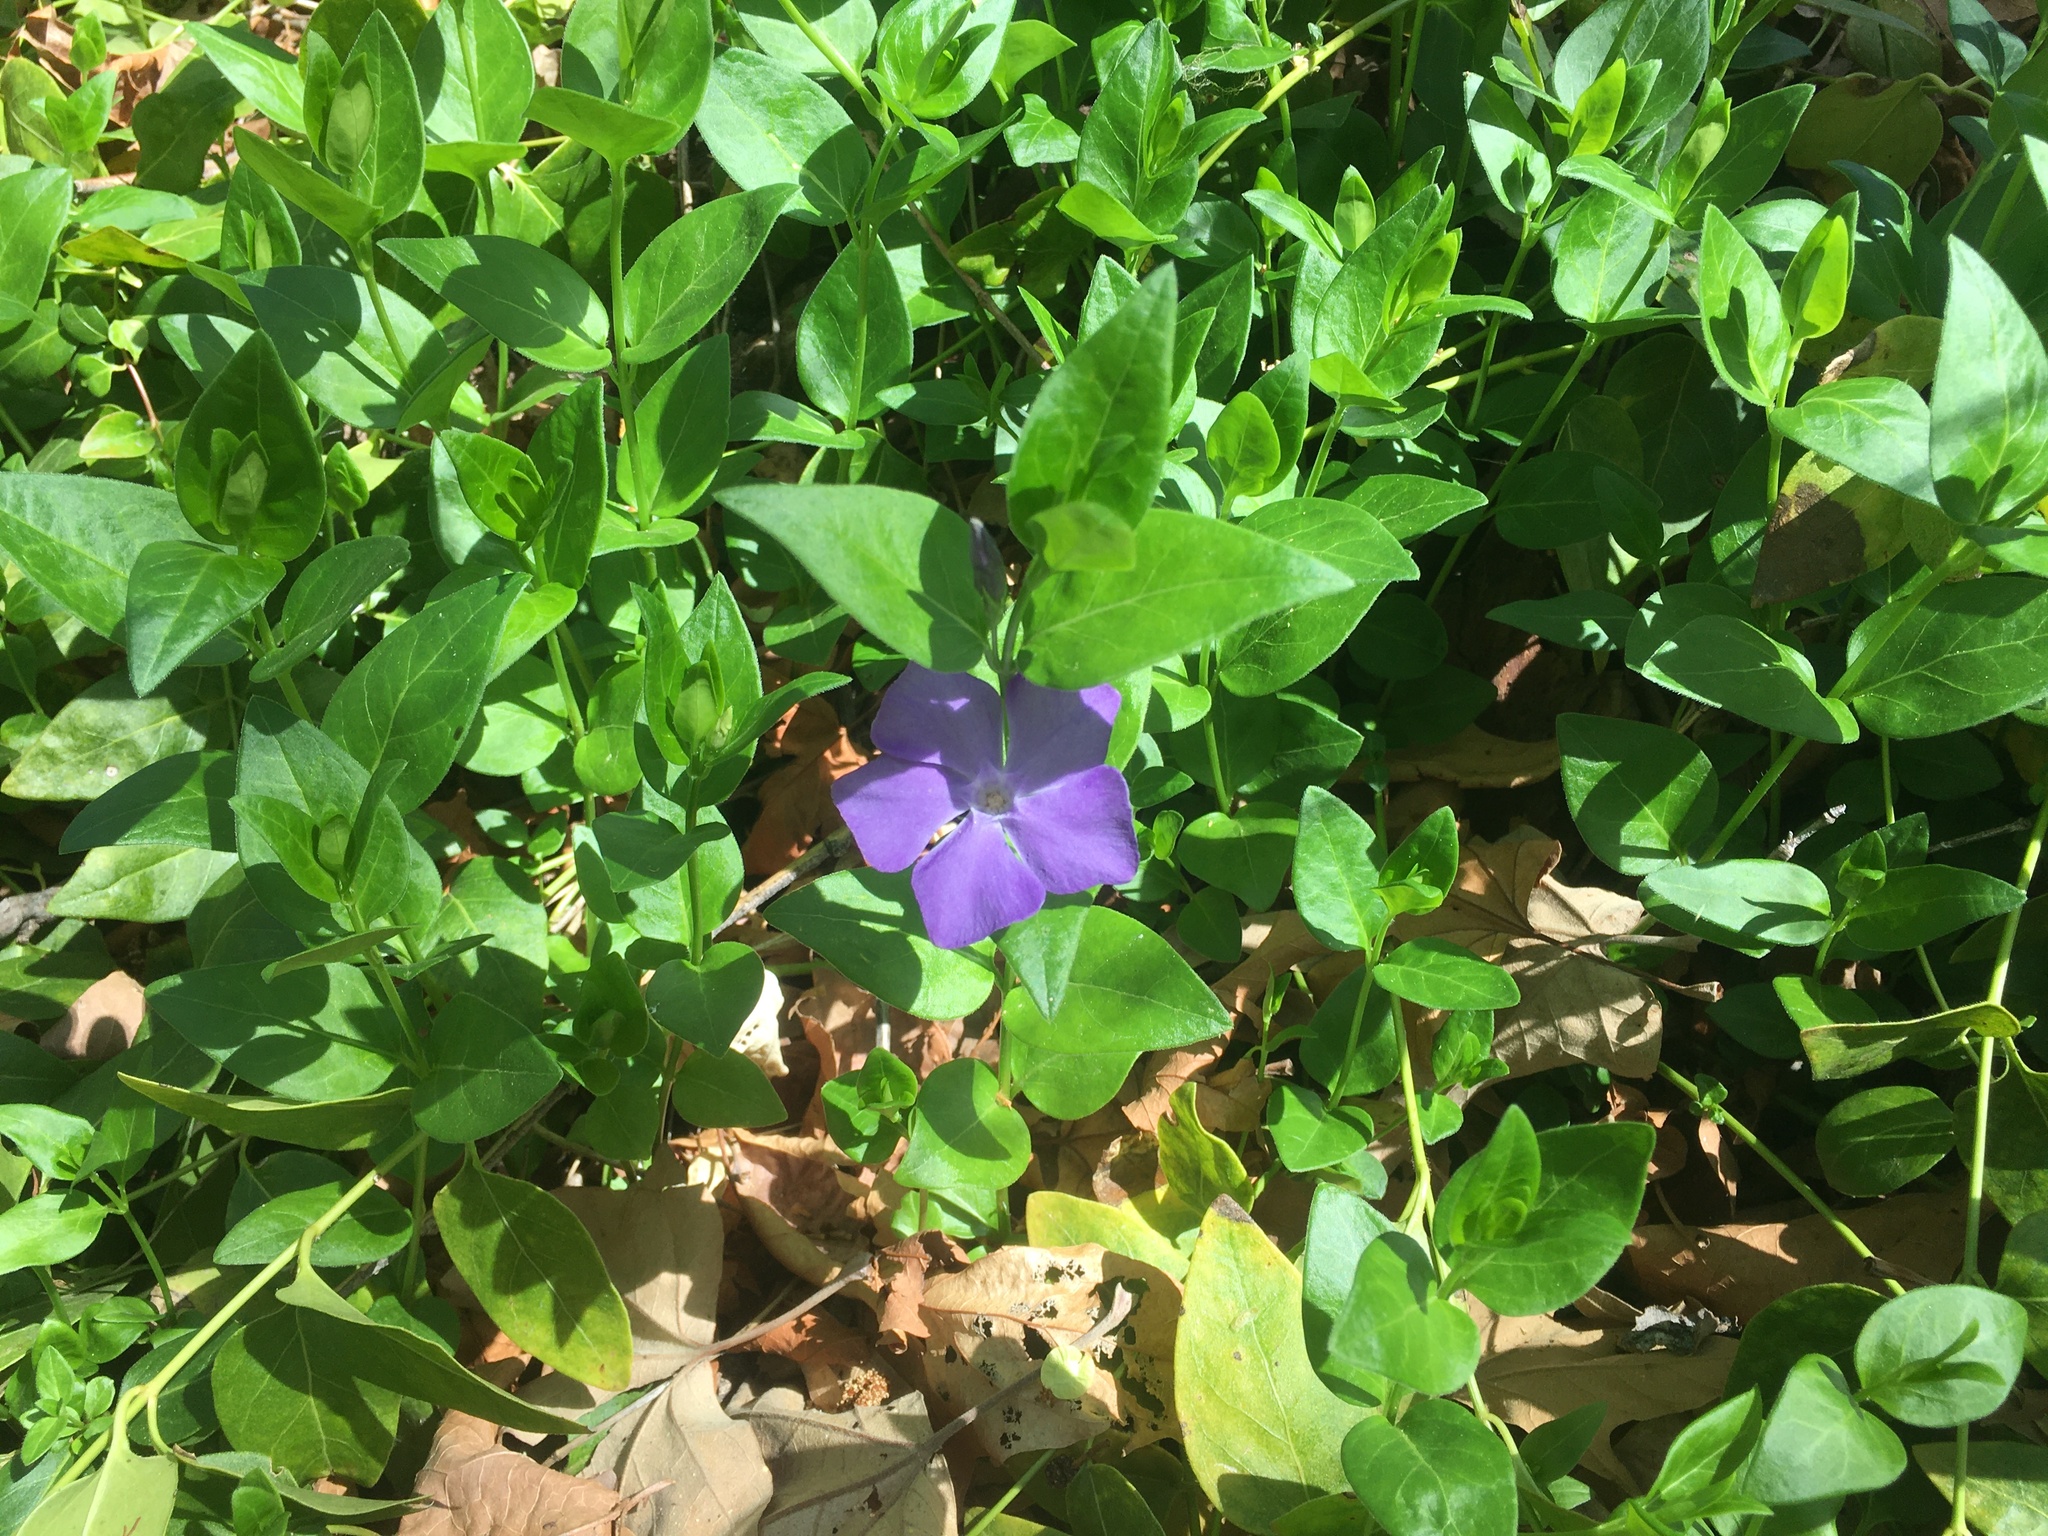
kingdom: Plantae
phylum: Tracheophyta
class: Magnoliopsida
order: Gentianales
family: Apocynaceae
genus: Vinca
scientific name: Vinca major
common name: Greater periwinkle
